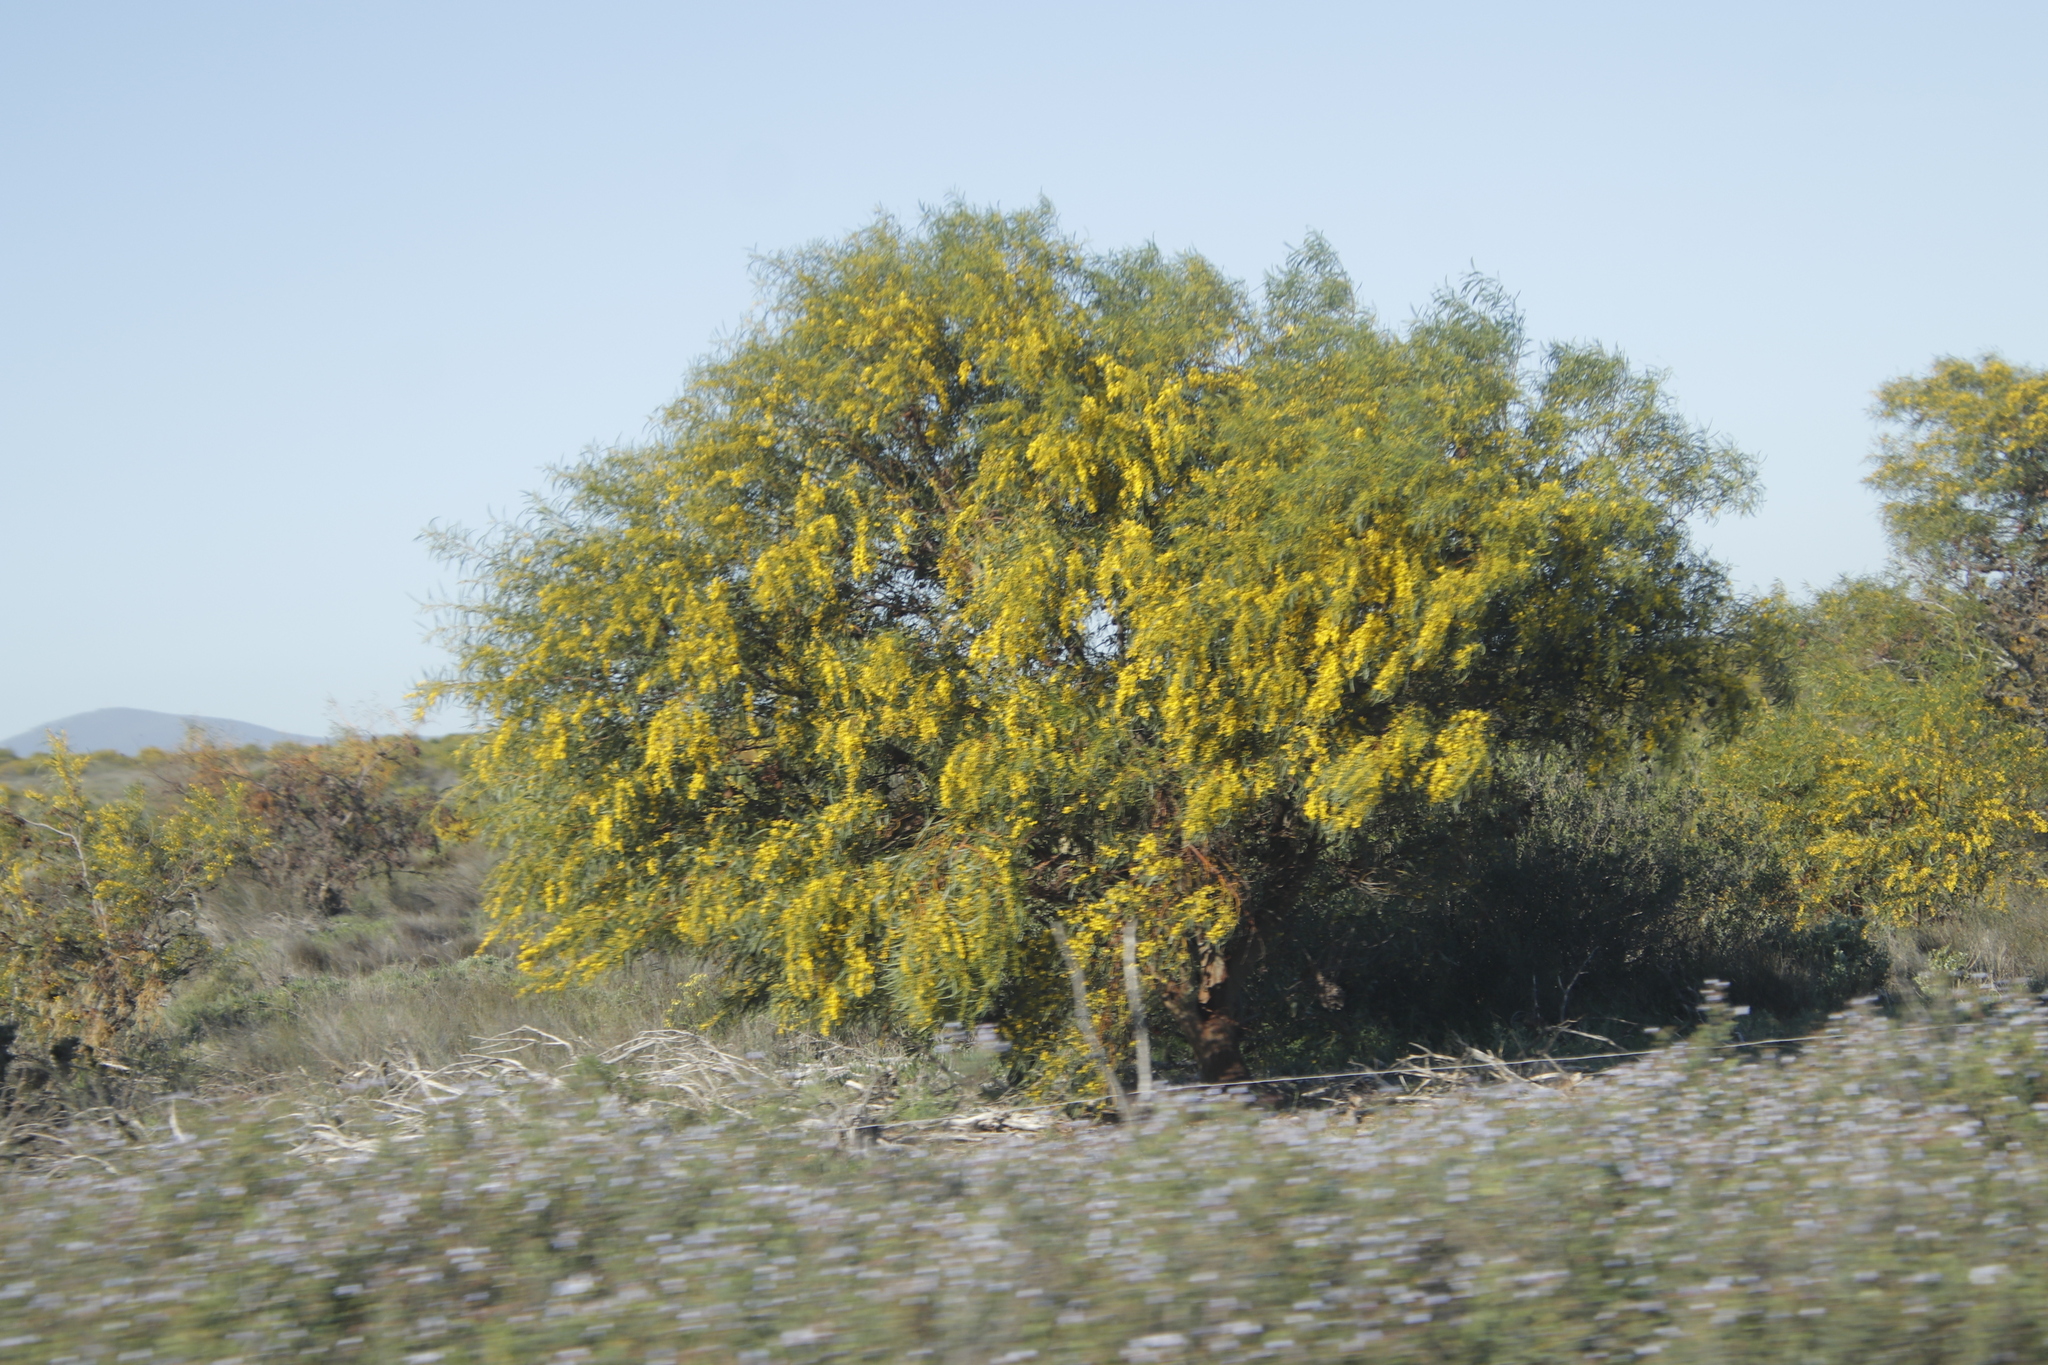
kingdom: Plantae
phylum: Tracheophyta
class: Magnoliopsida
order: Fabales
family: Fabaceae
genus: Acacia
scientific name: Acacia saligna
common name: Orange wattle
